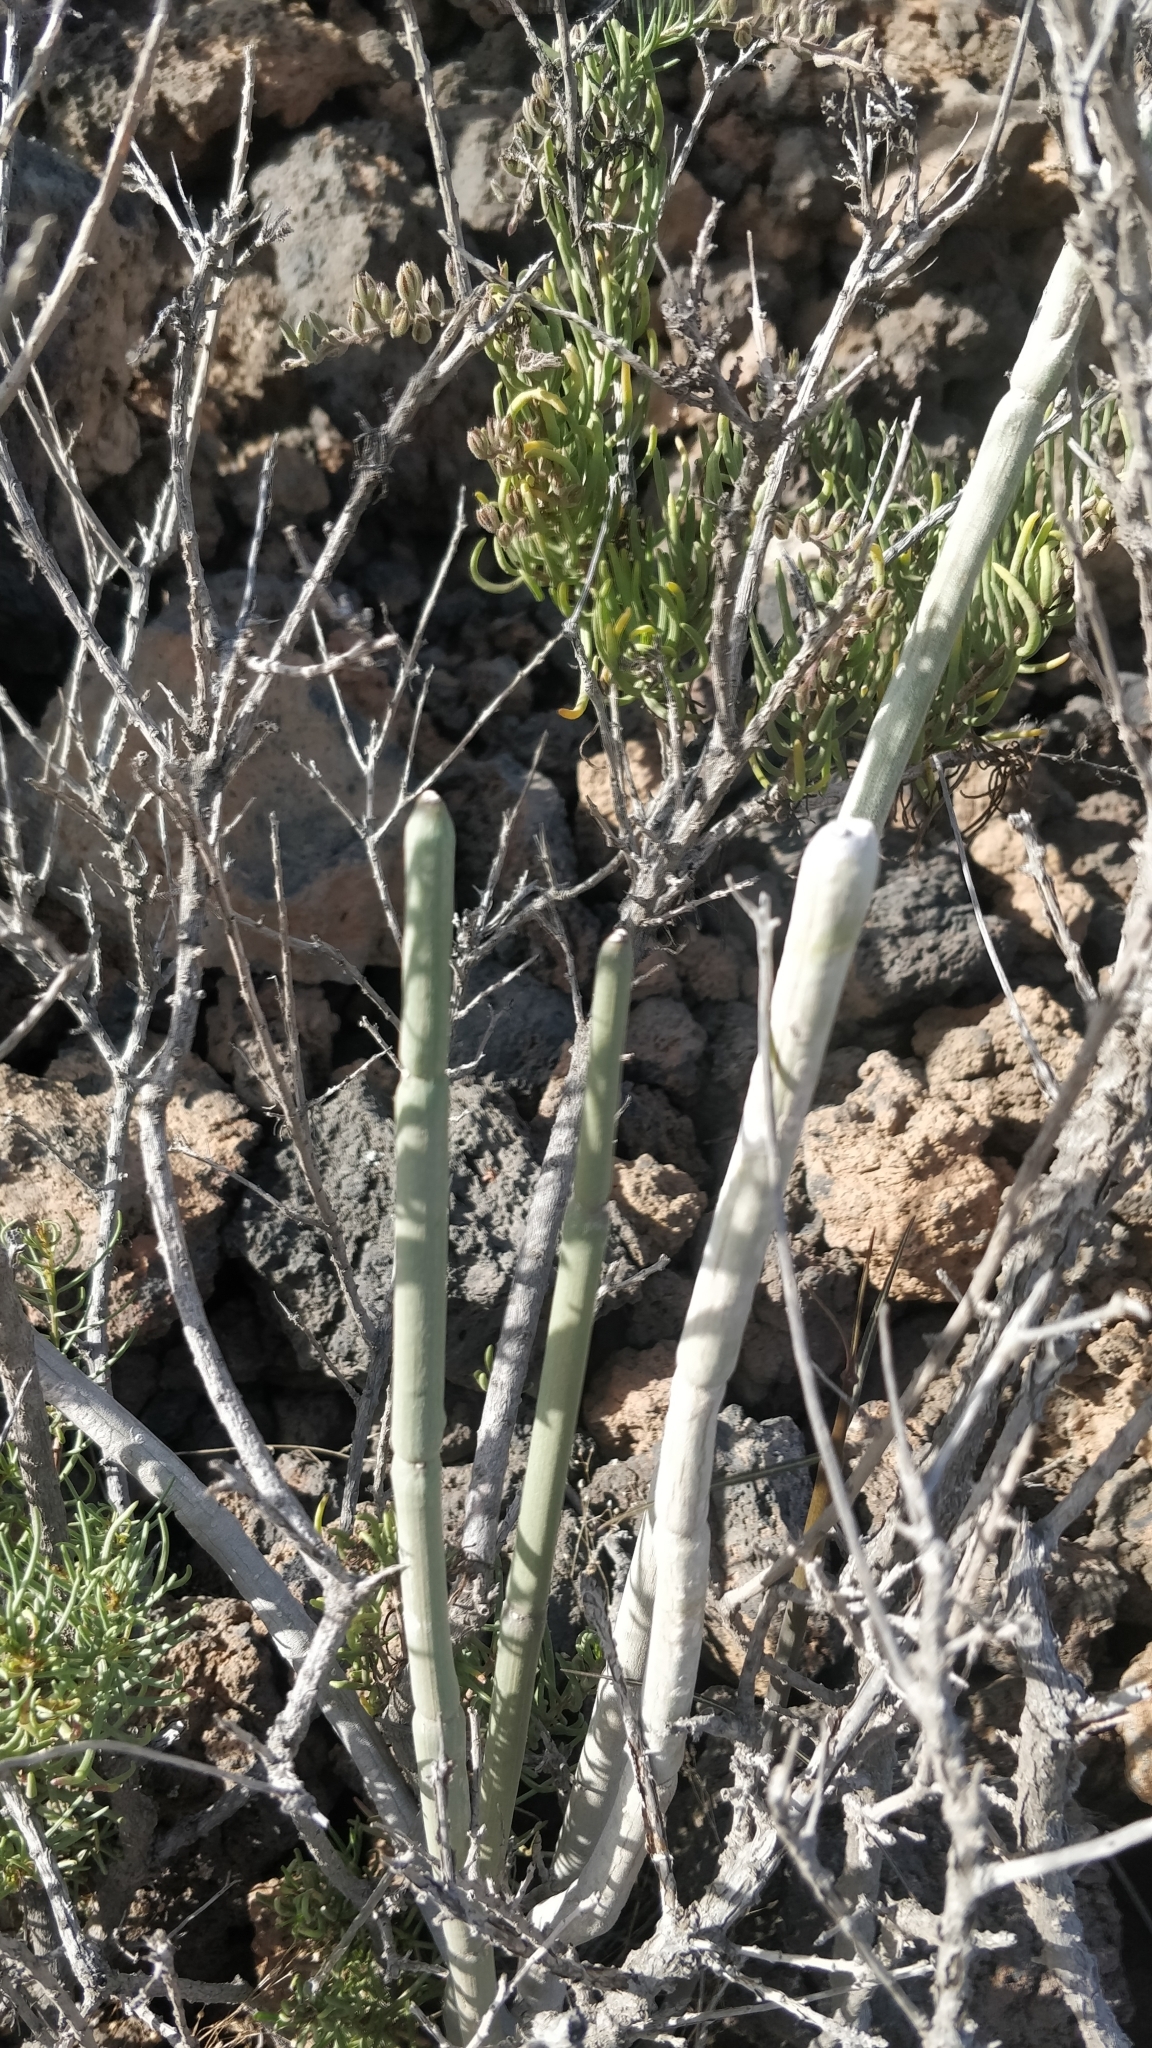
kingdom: Plantae
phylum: Tracheophyta
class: Magnoliopsida
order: Gentianales
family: Apocynaceae
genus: Ceropegia
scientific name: Ceropegia fusca
